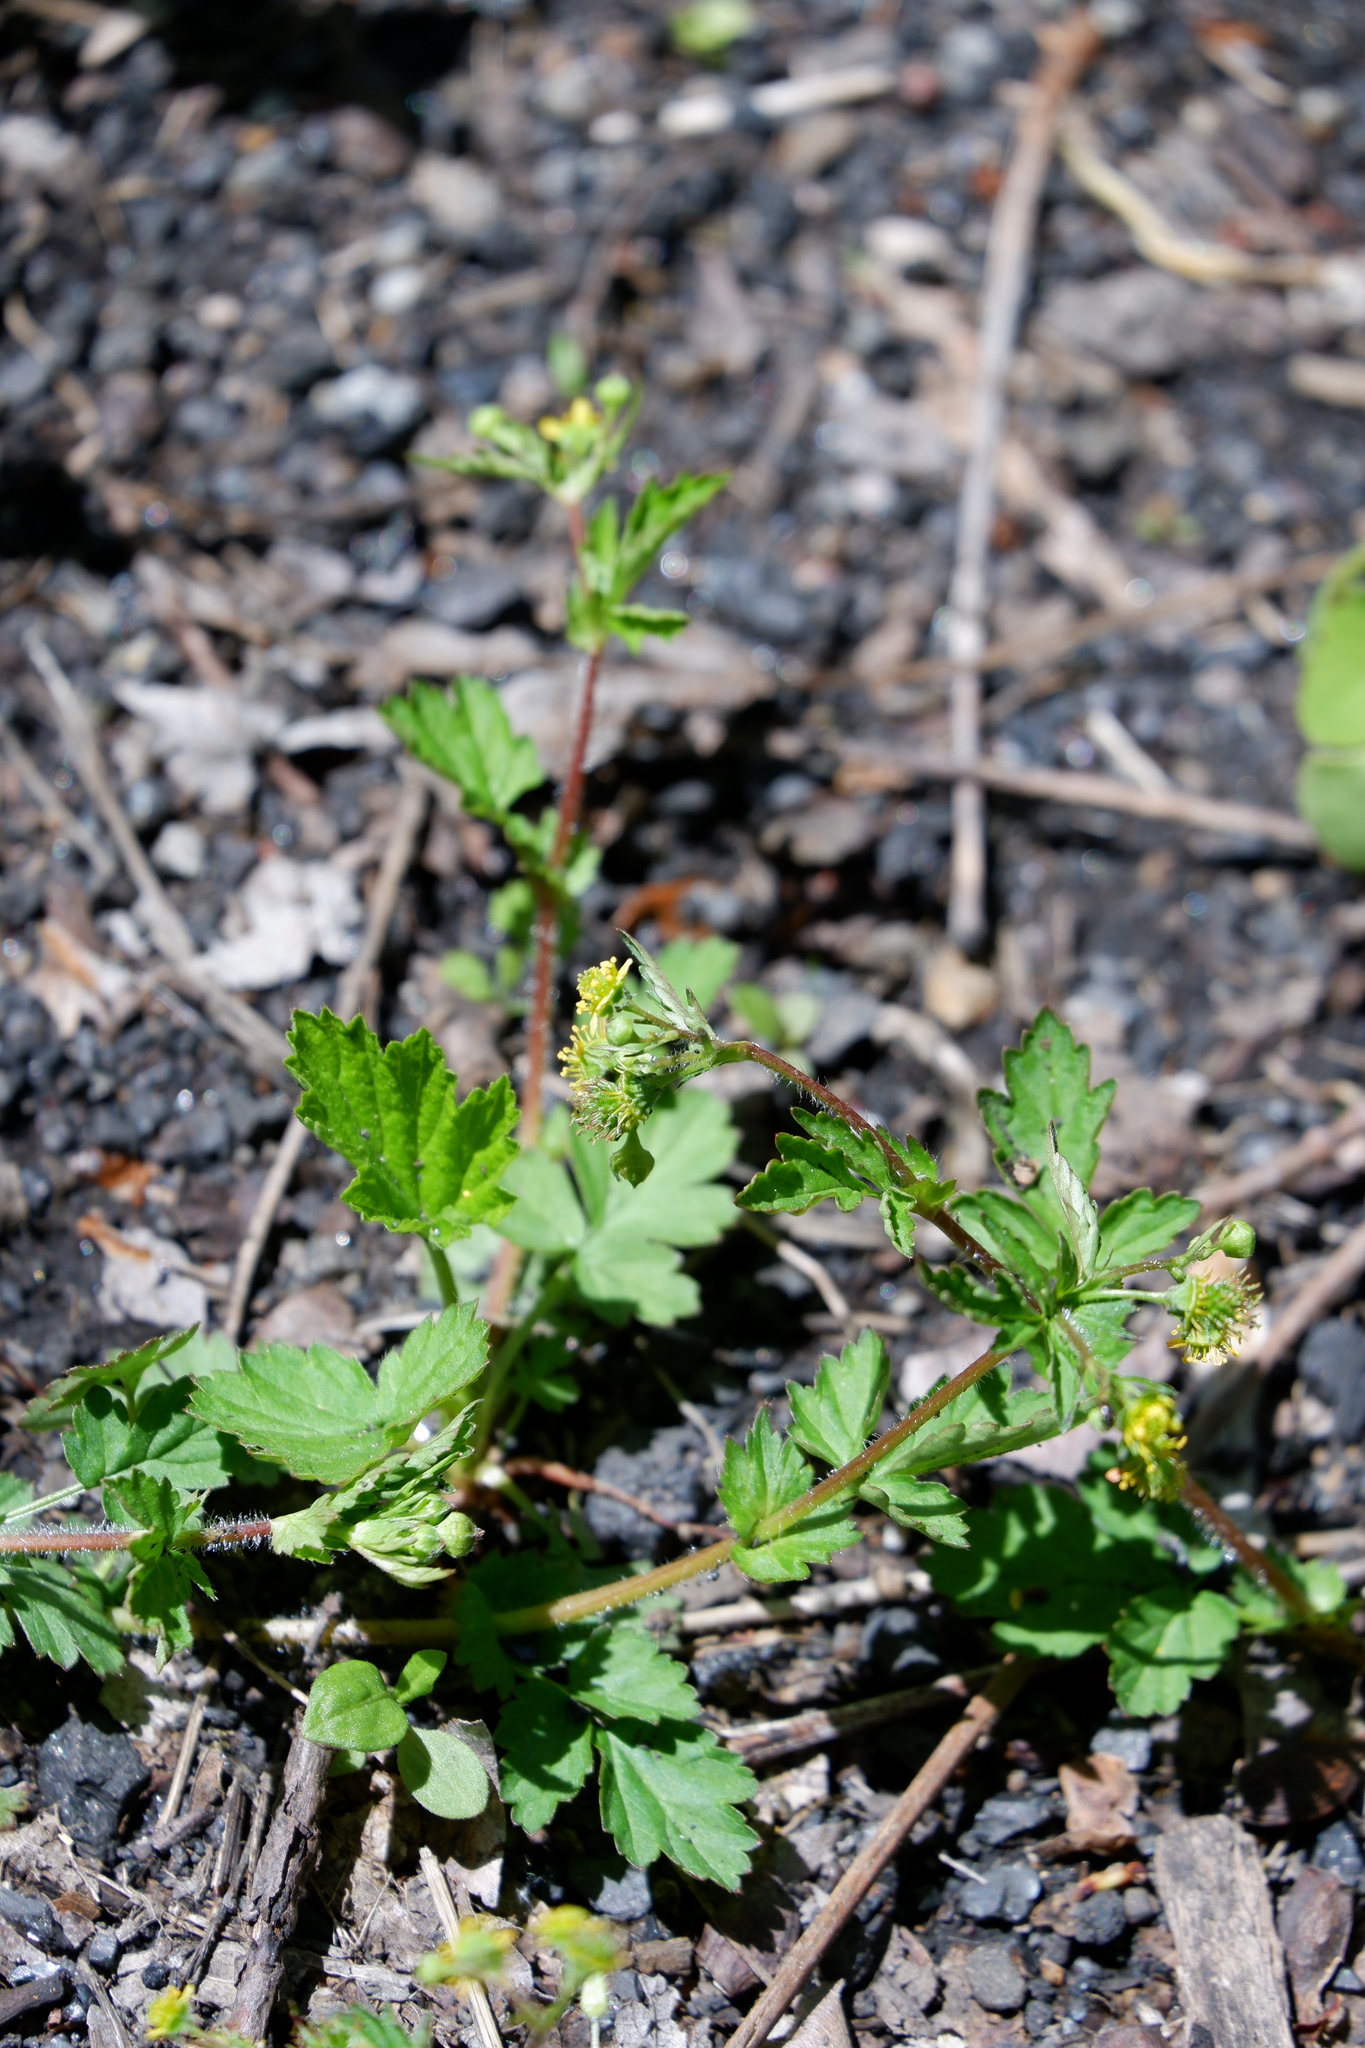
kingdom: Plantae
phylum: Tracheophyta
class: Magnoliopsida
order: Rosales
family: Rosaceae
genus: Geum
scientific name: Geum vernum
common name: Spring avens
